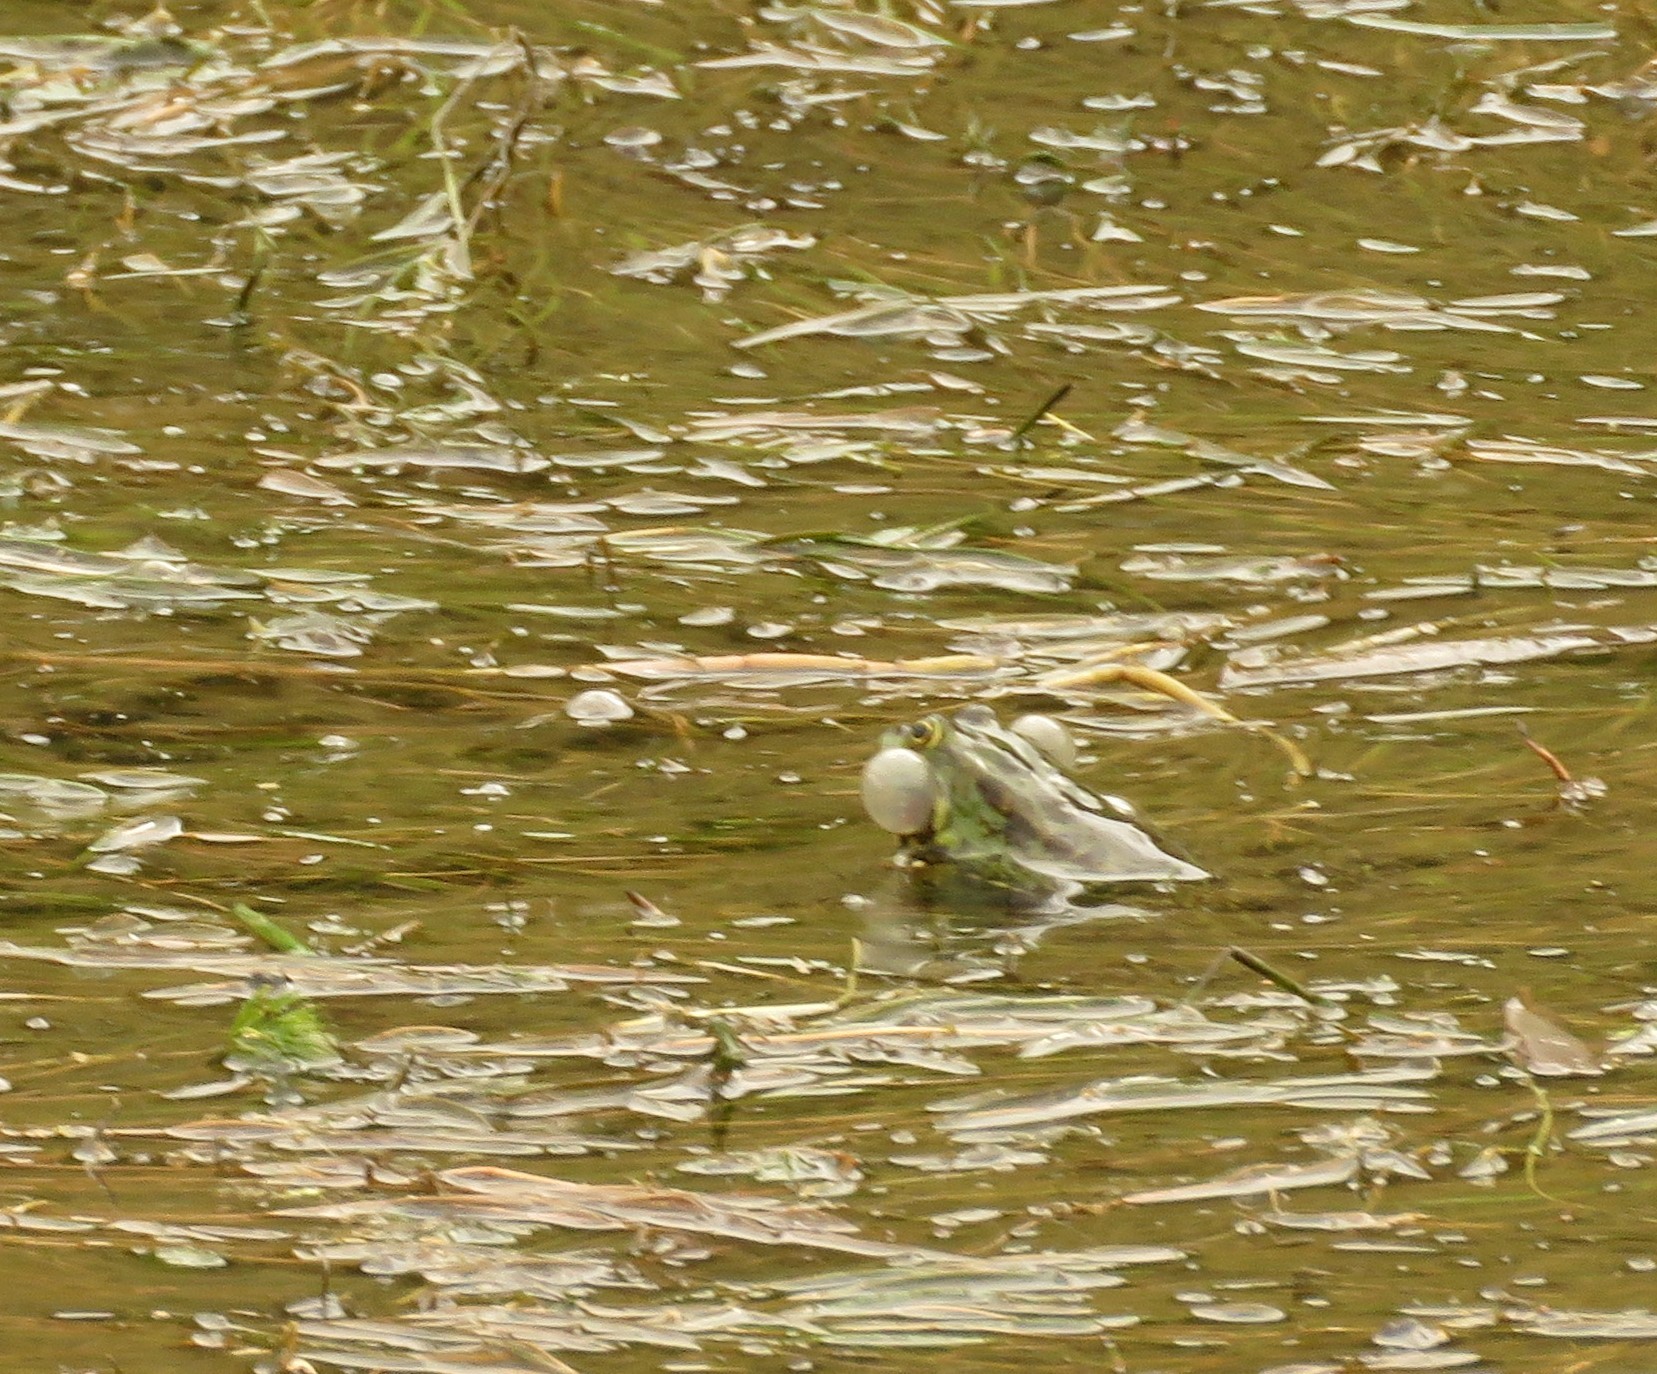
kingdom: Animalia
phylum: Chordata
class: Amphibia
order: Anura
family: Ranidae
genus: Pelophylax
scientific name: Pelophylax ridibundus
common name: Marsh frog
